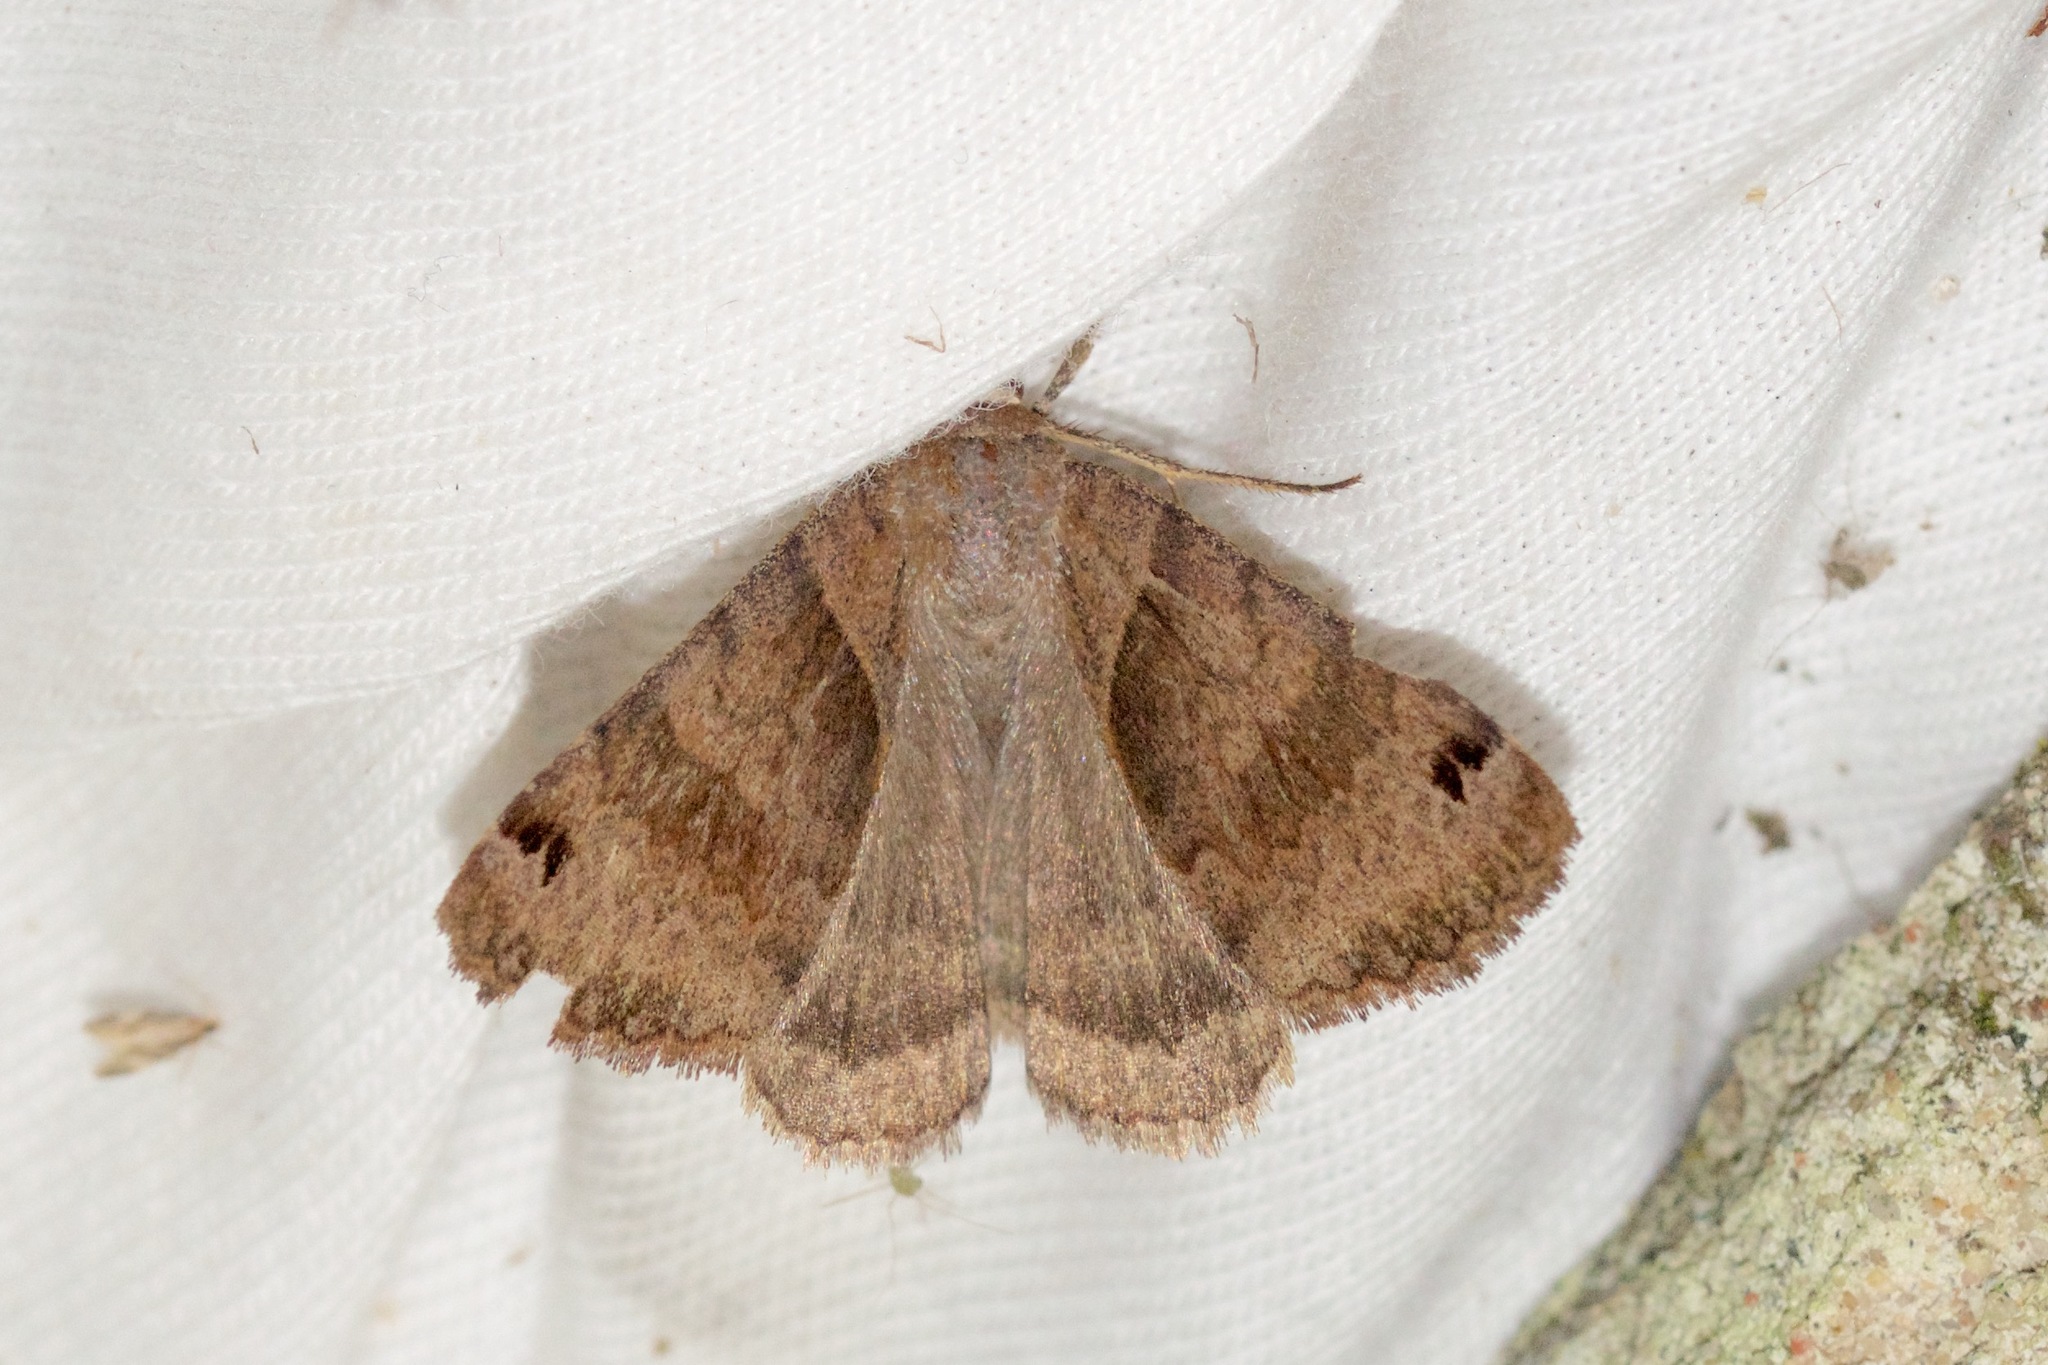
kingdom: Animalia
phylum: Arthropoda
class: Insecta
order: Lepidoptera
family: Erebidae
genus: Caenurgina
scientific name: Caenurgina crassiuscula
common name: Double-barred
